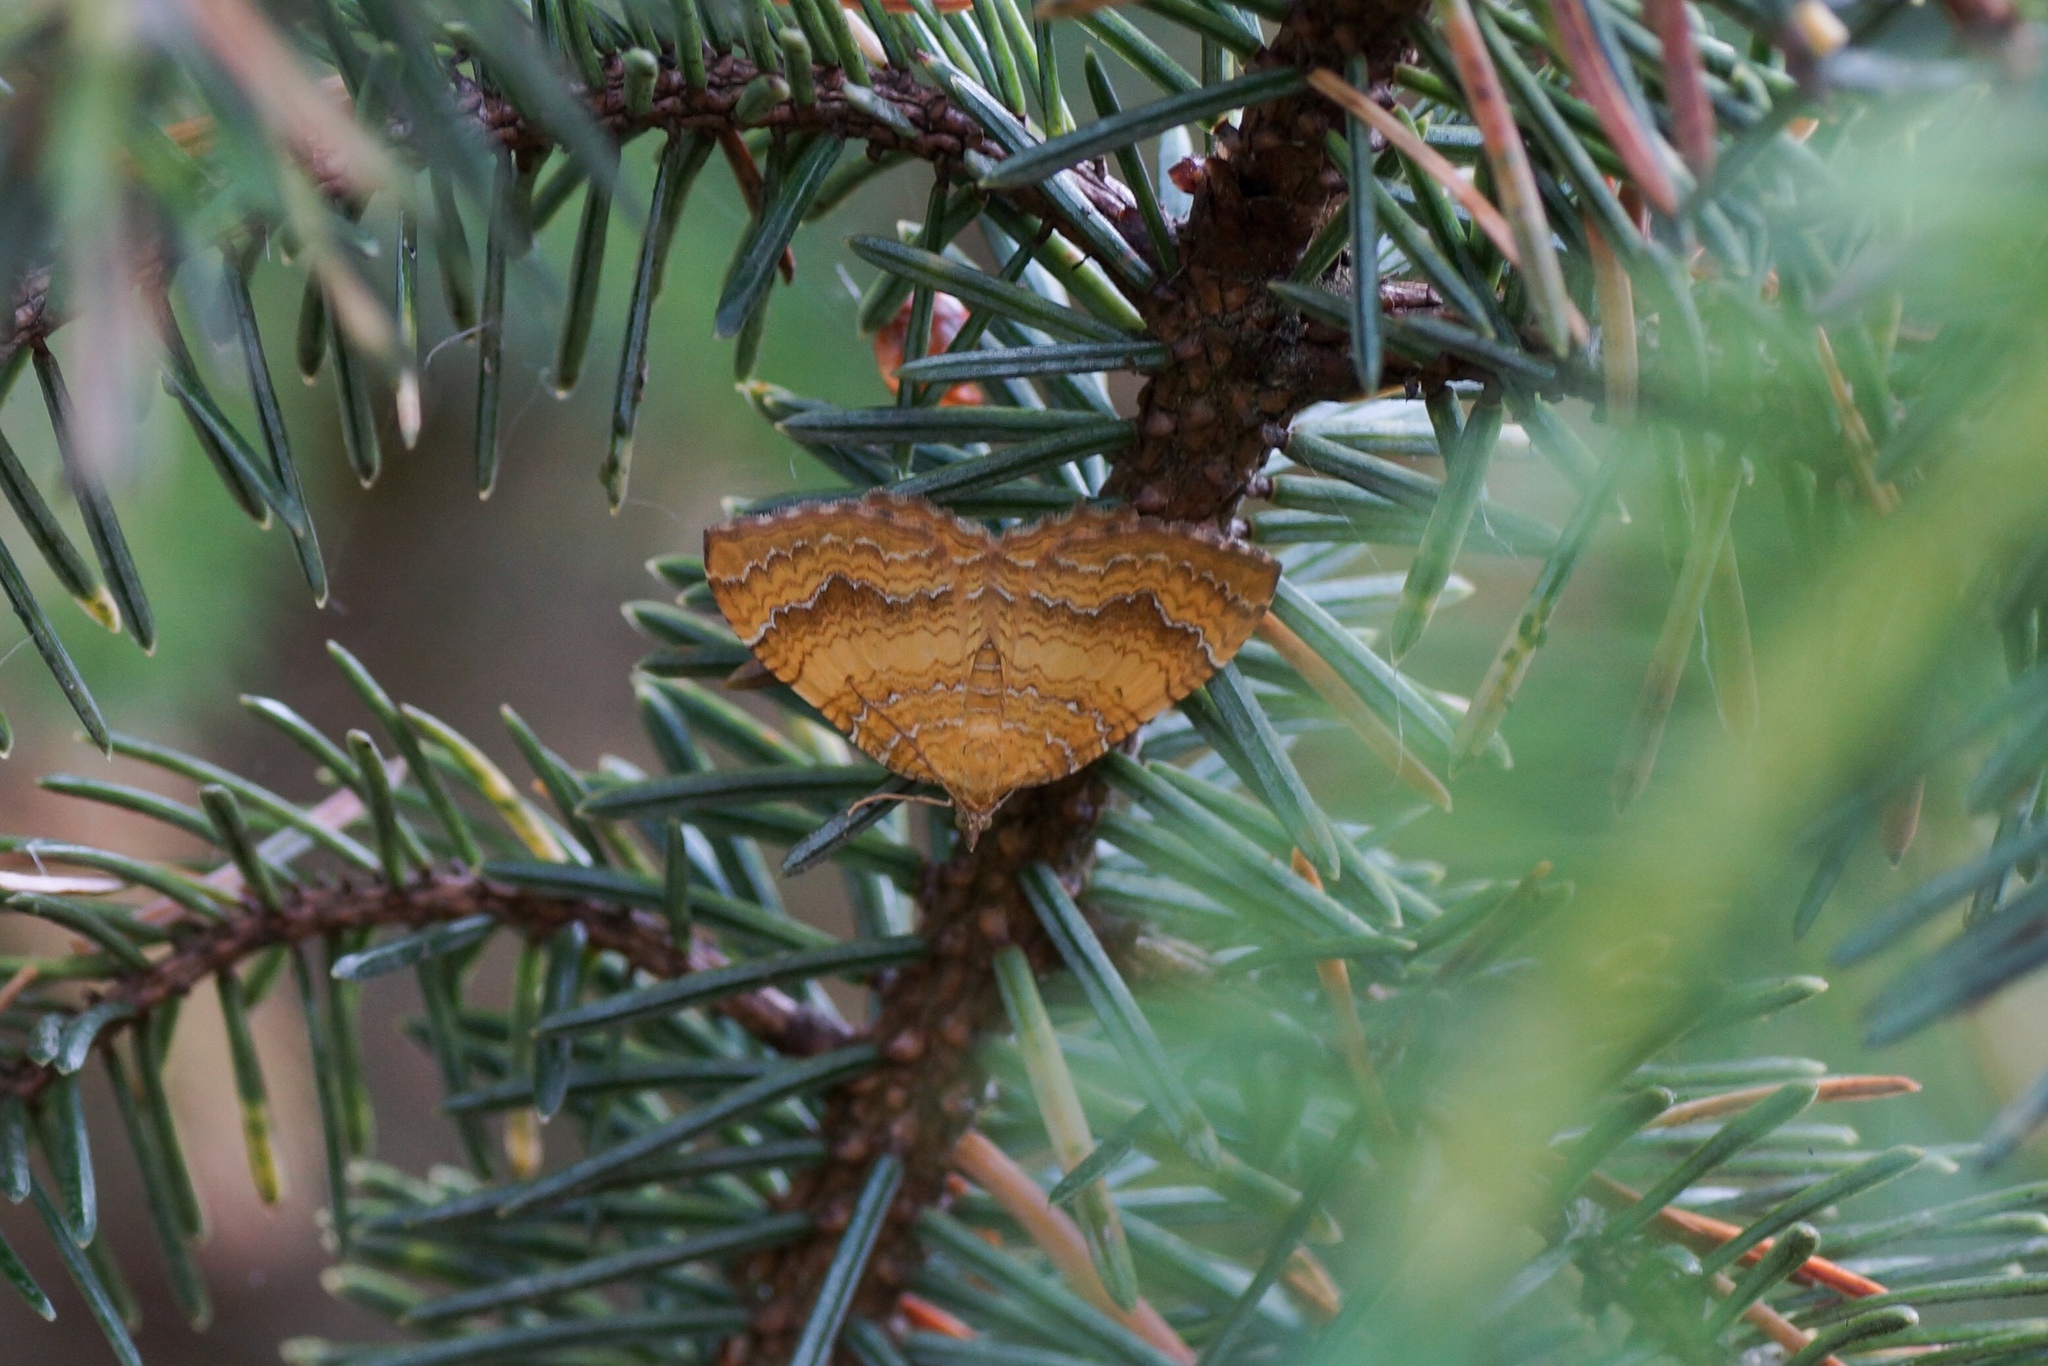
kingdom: Animalia
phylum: Arthropoda
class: Insecta
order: Lepidoptera
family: Geometridae
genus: Camptogramma
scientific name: Camptogramma bilineata
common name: Yellow shell
